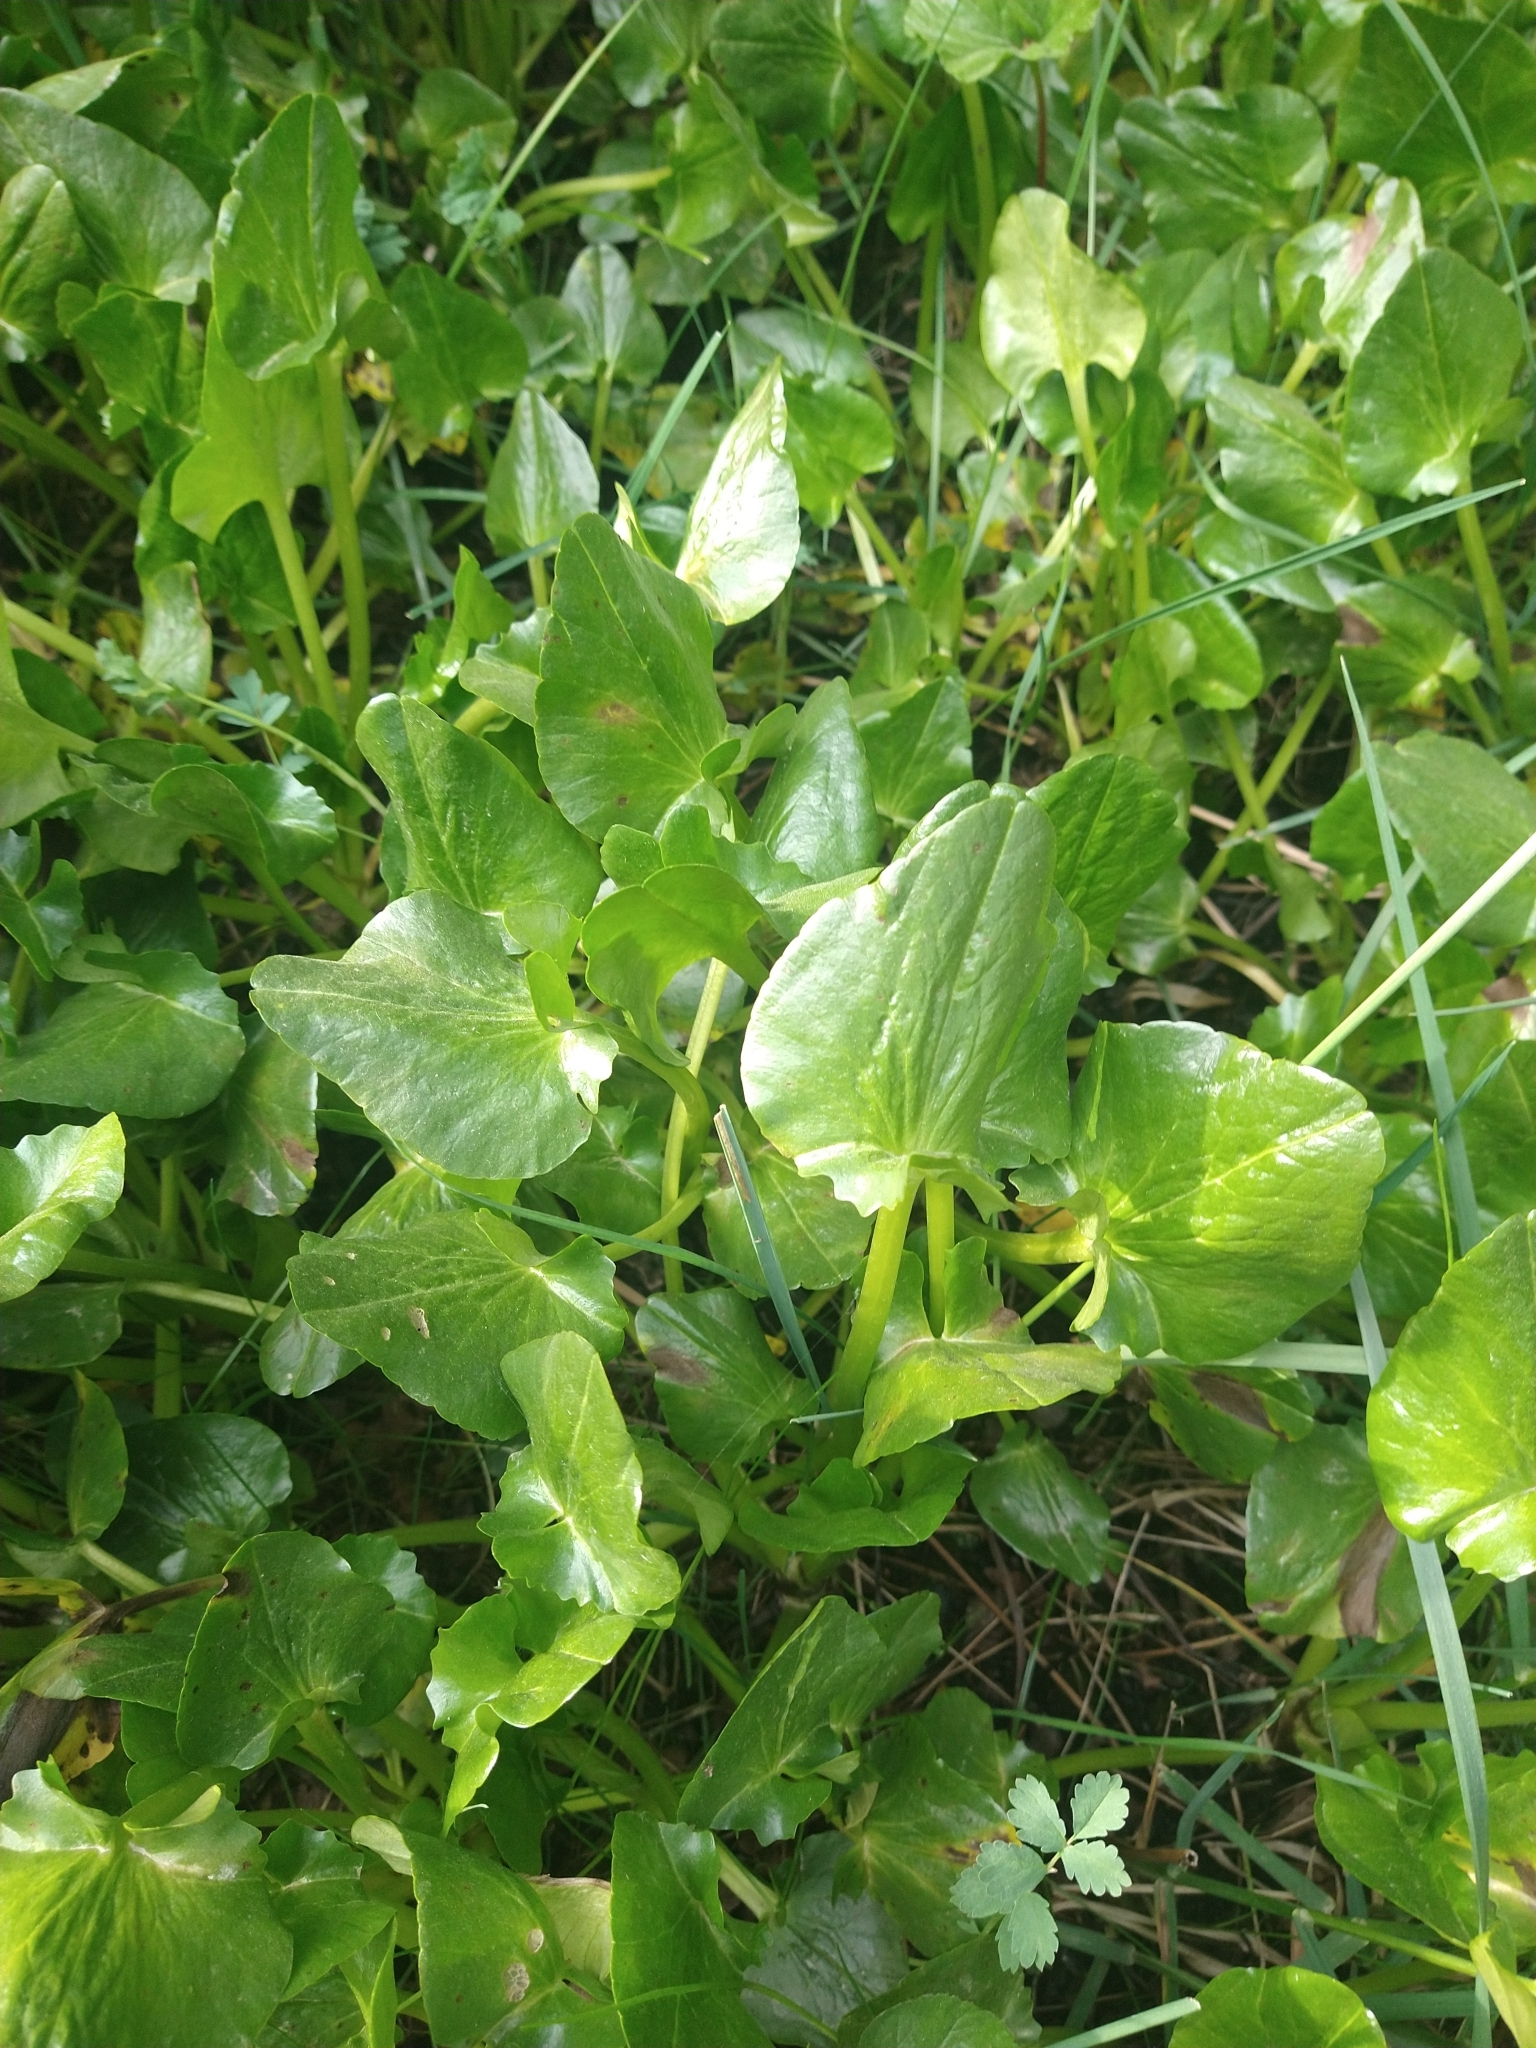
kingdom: Plantae
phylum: Tracheophyta
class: Magnoliopsida
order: Ranunculales
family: Ranunculaceae
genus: Caltha
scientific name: Caltha sagittata
